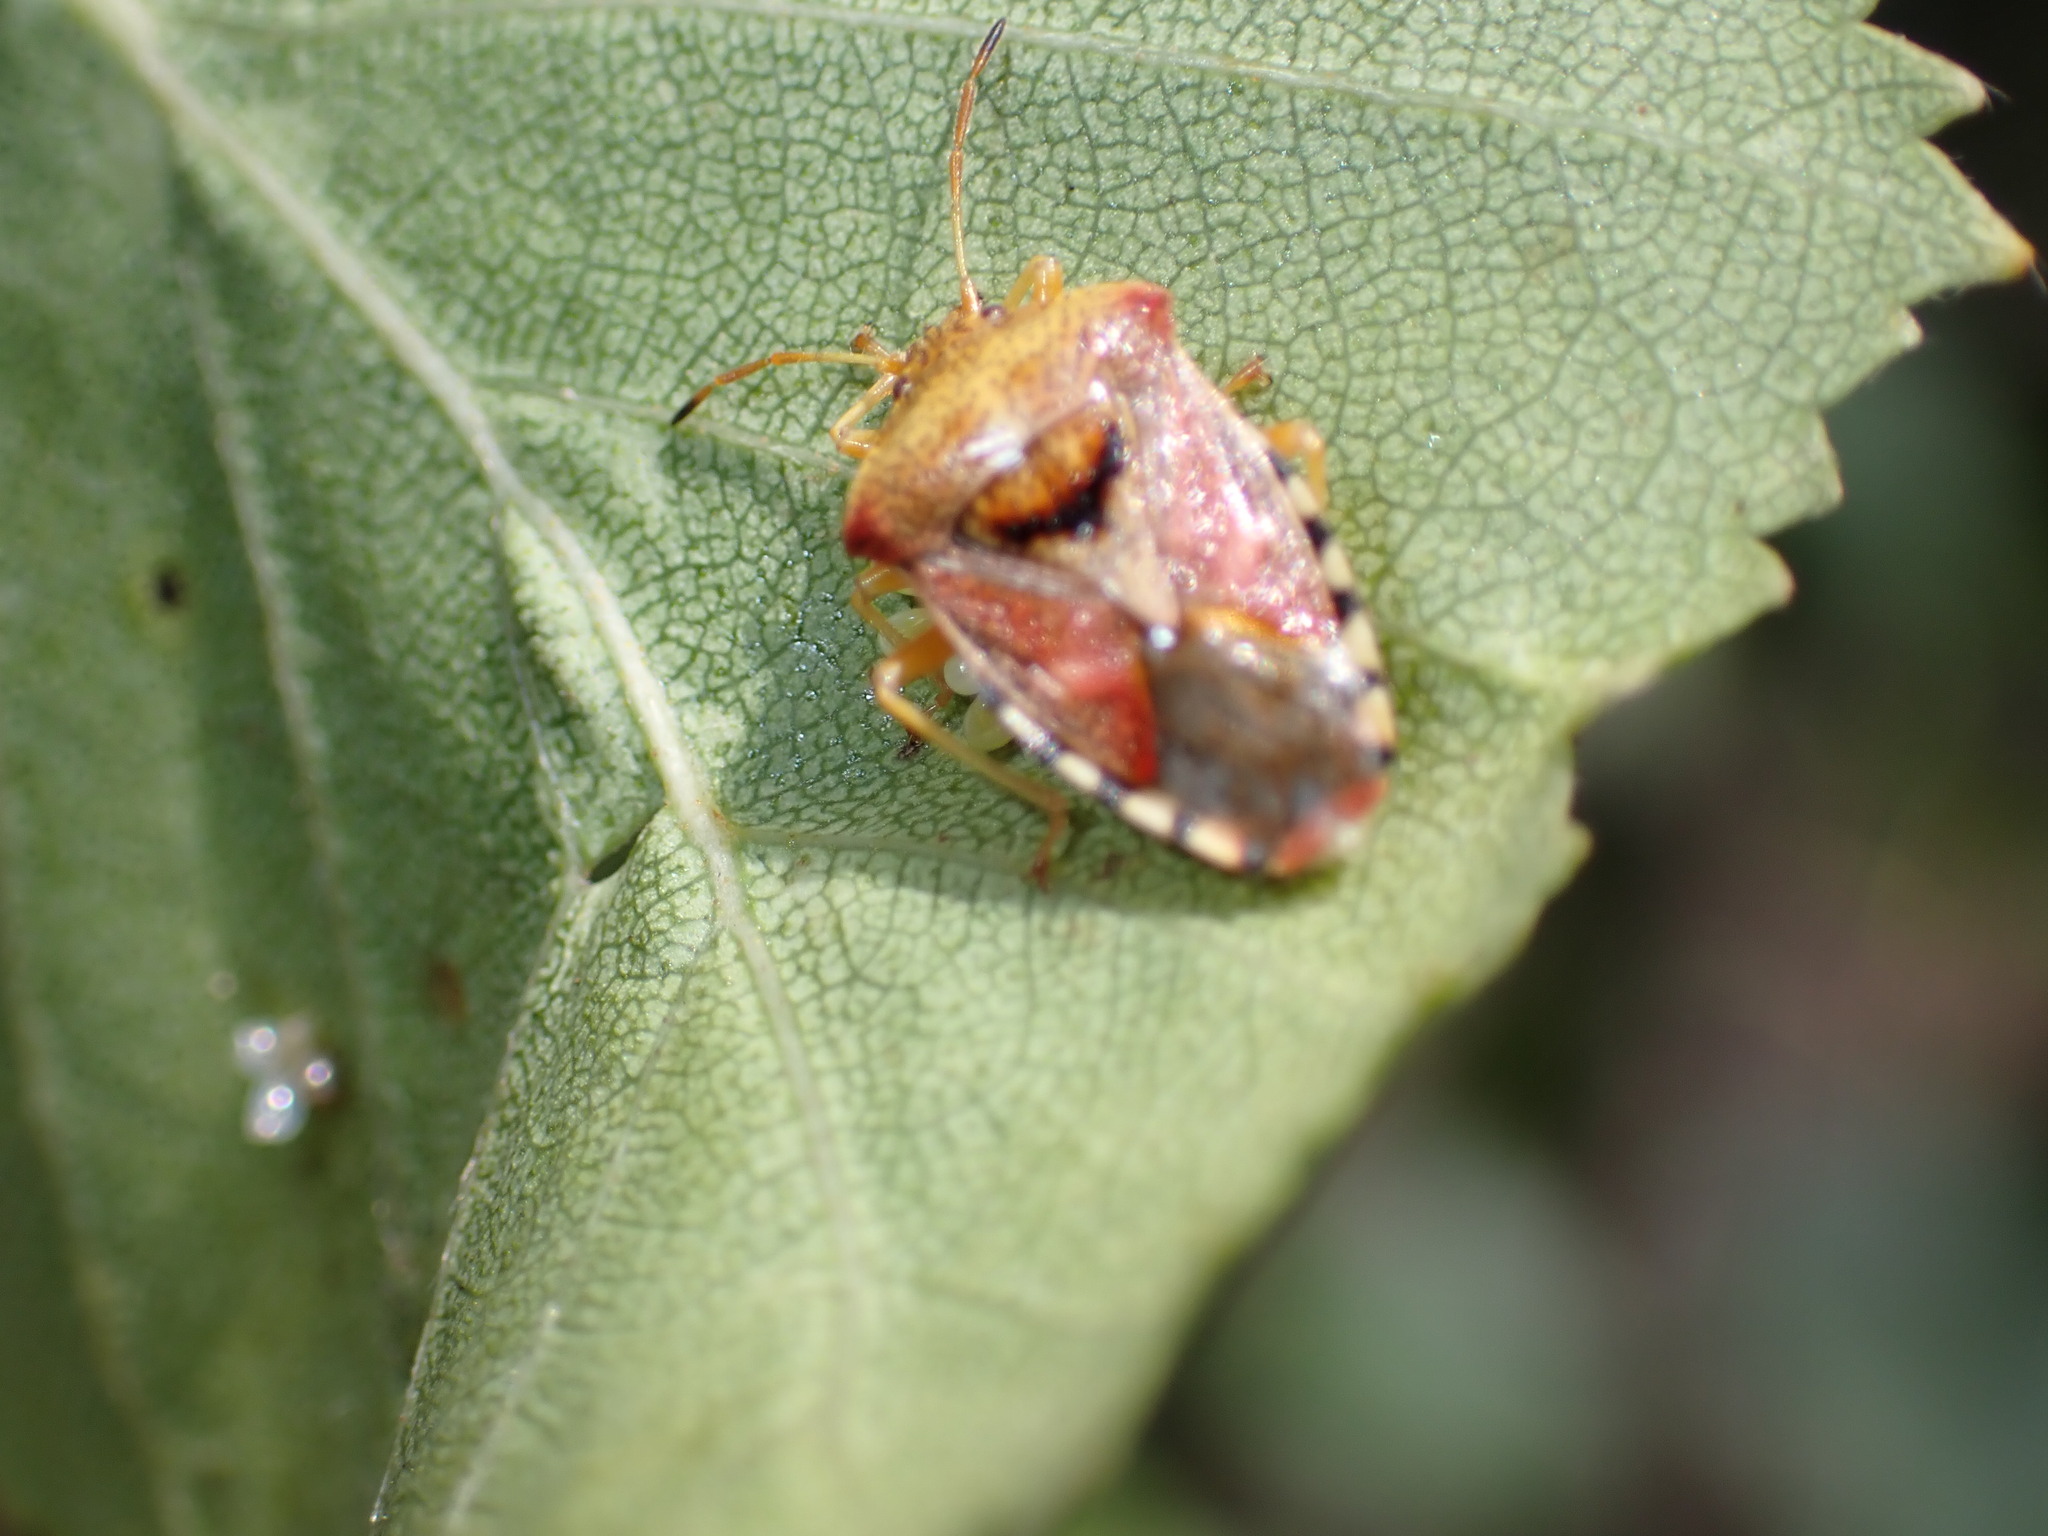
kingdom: Animalia
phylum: Arthropoda
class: Insecta
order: Hemiptera
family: Acanthosomatidae
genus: Elasmucha
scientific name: Elasmucha grisea
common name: Parent bug
